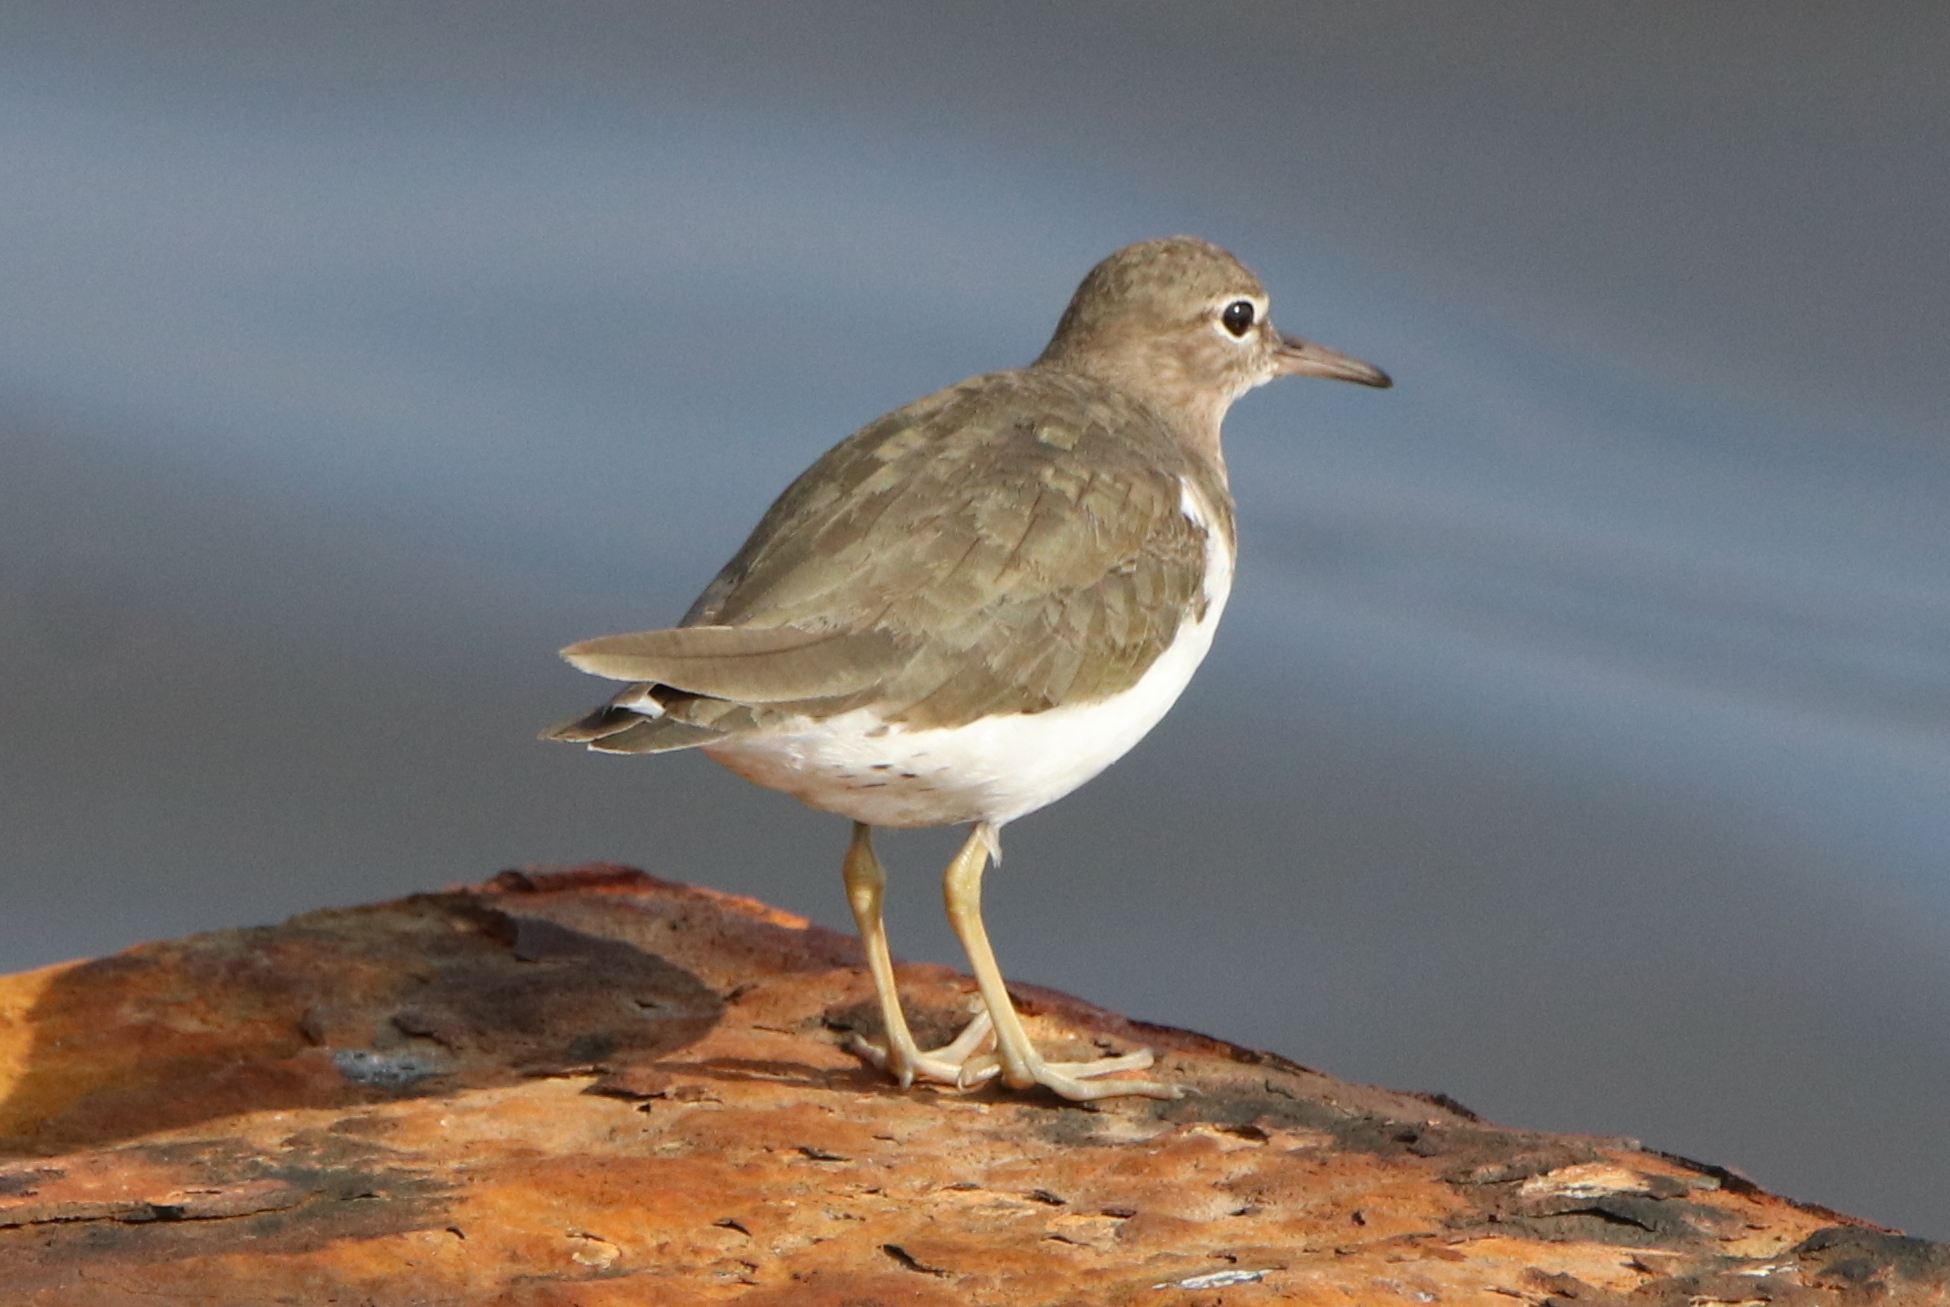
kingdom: Animalia
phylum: Chordata
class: Aves
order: Charadriiformes
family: Scolopacidae
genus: Actitis
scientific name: Actitis macularius
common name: Spotted sandpiper
